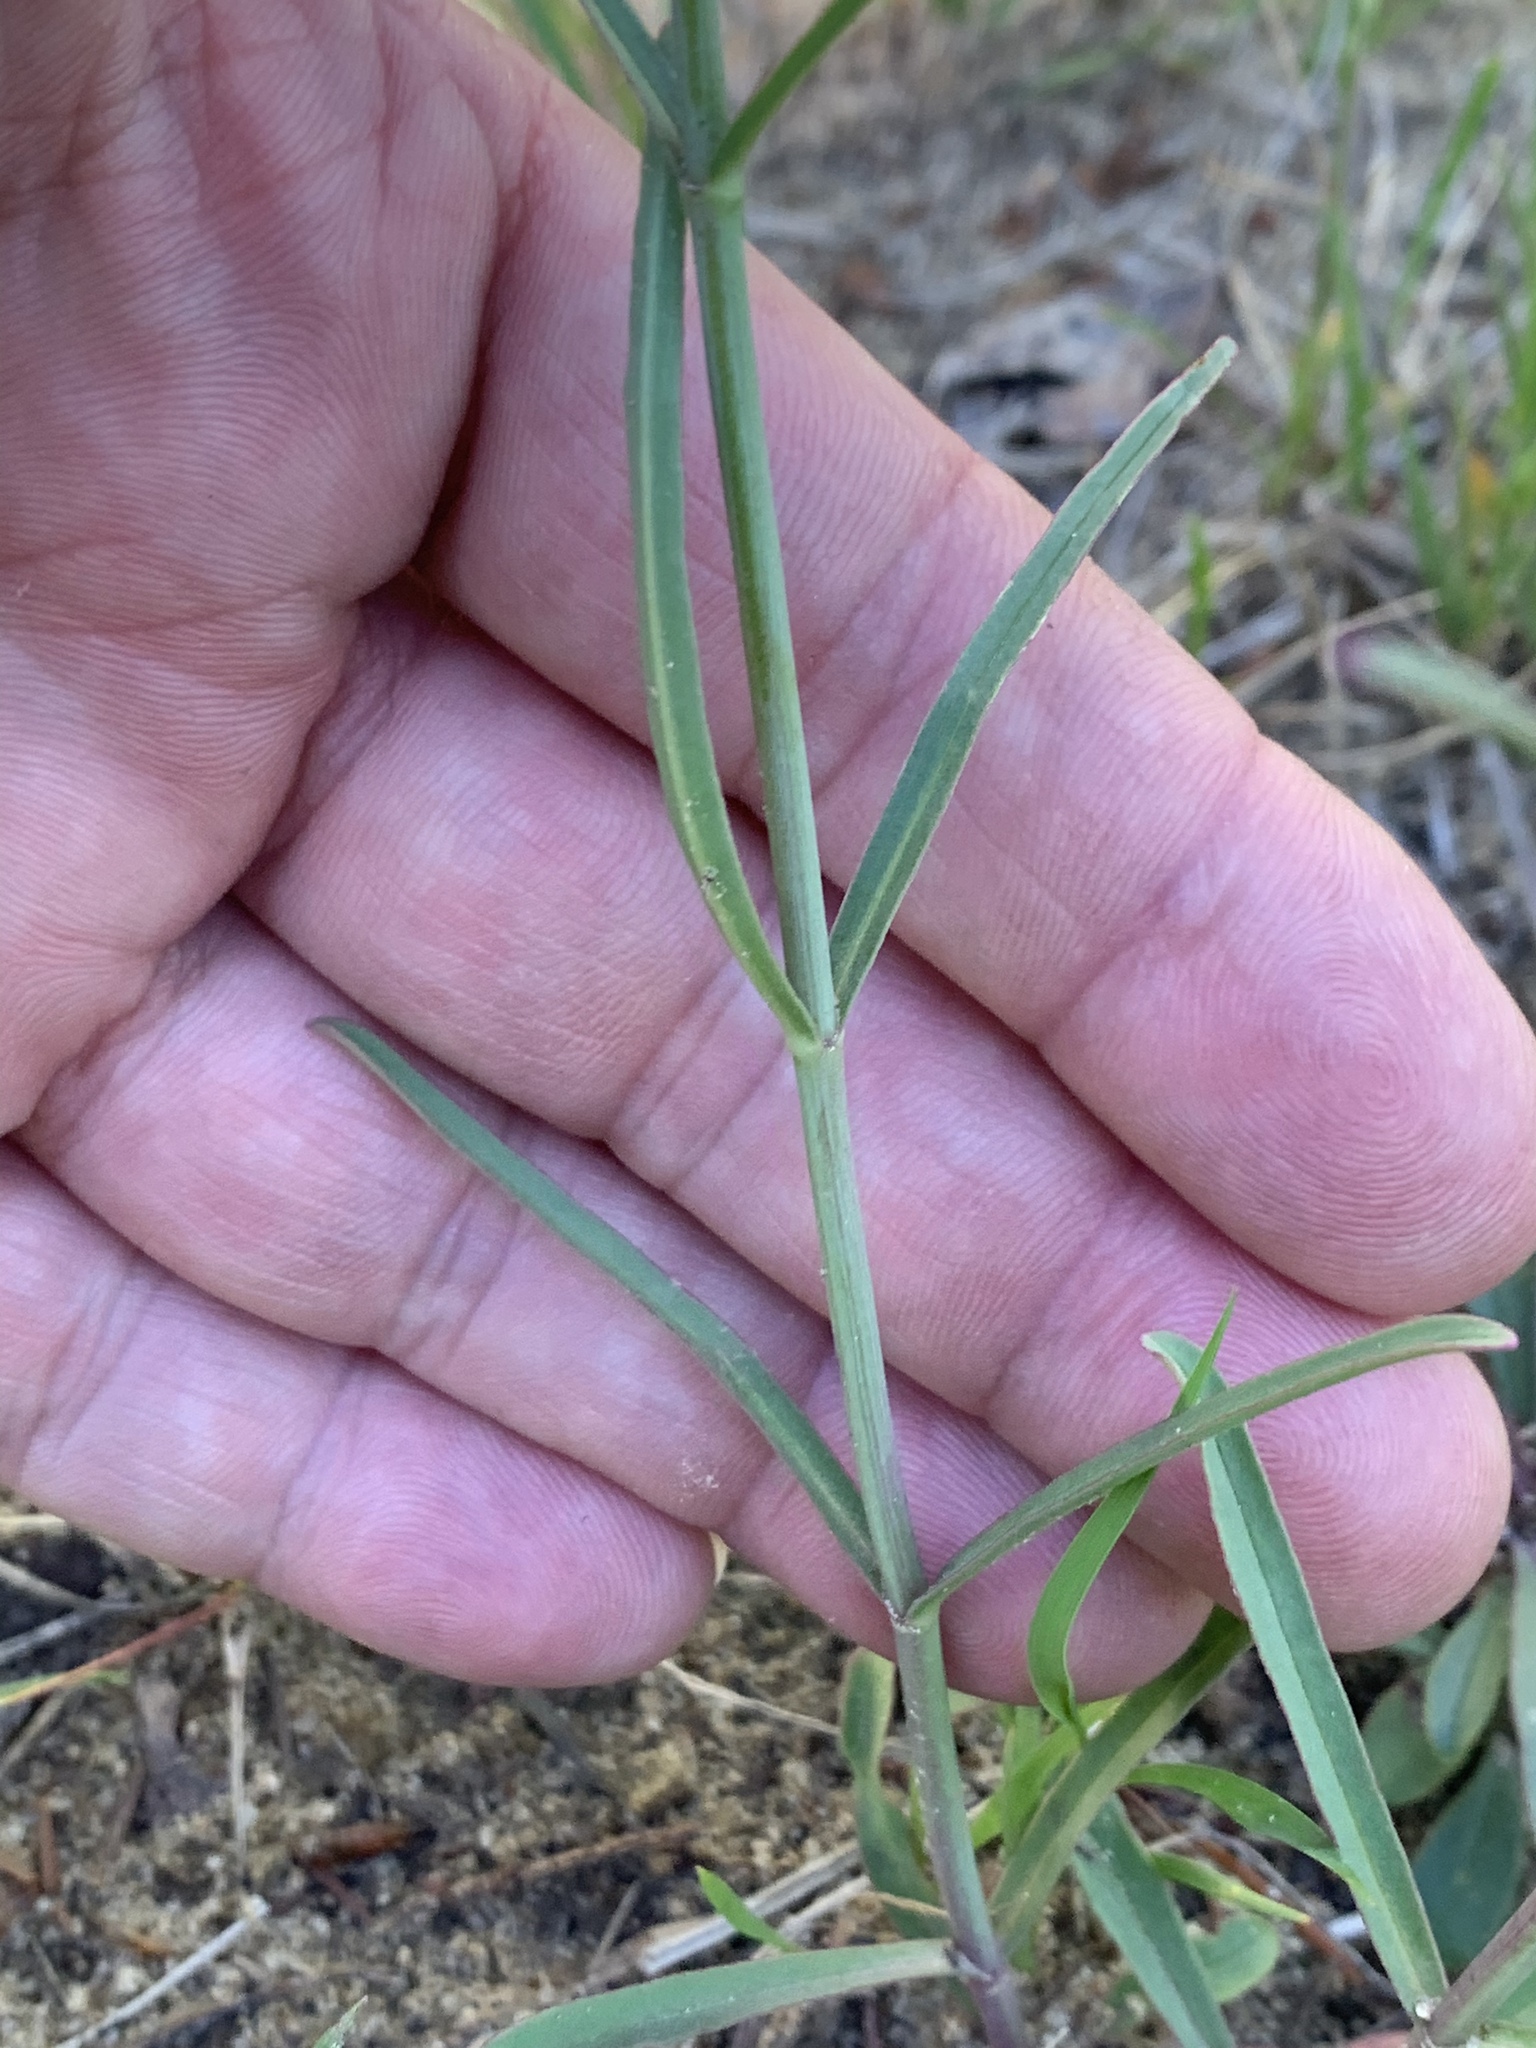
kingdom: Plantae
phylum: Tracheophyta
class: Magnoliopsida
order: Lamiales
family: Plantaginaceae
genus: Penstemon
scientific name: Penstemon barbatus
